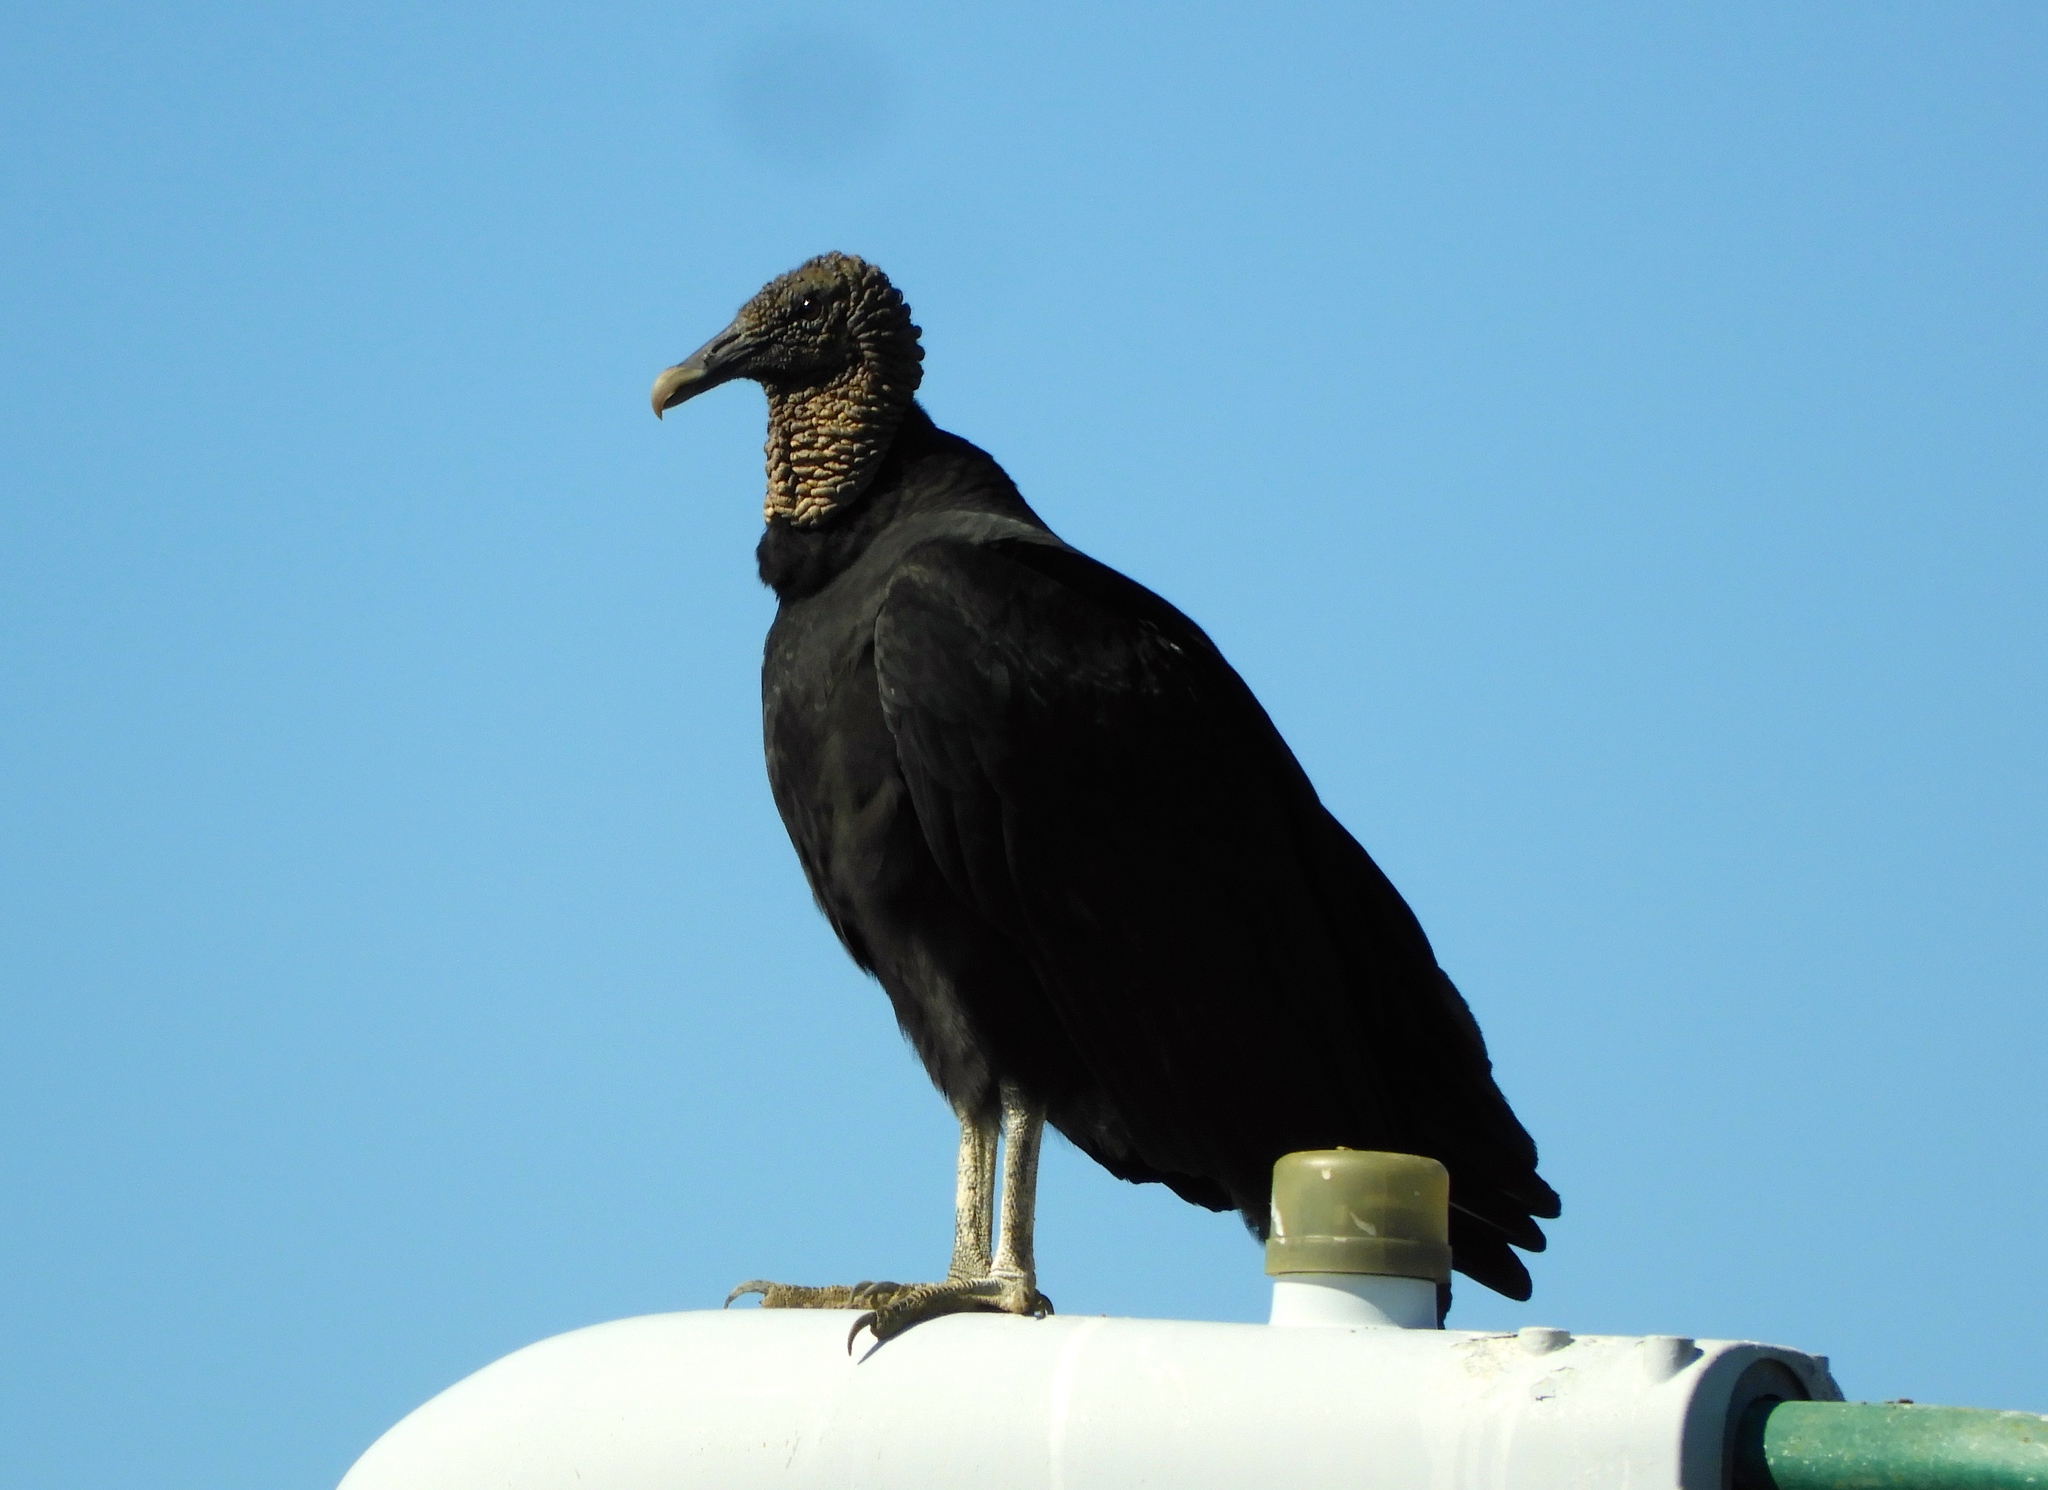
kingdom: Animalia
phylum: Chordata
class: Aves
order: Accipitriformes
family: Cathartidae
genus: Coragyps
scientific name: Coragyps atratus
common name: Black vulture
